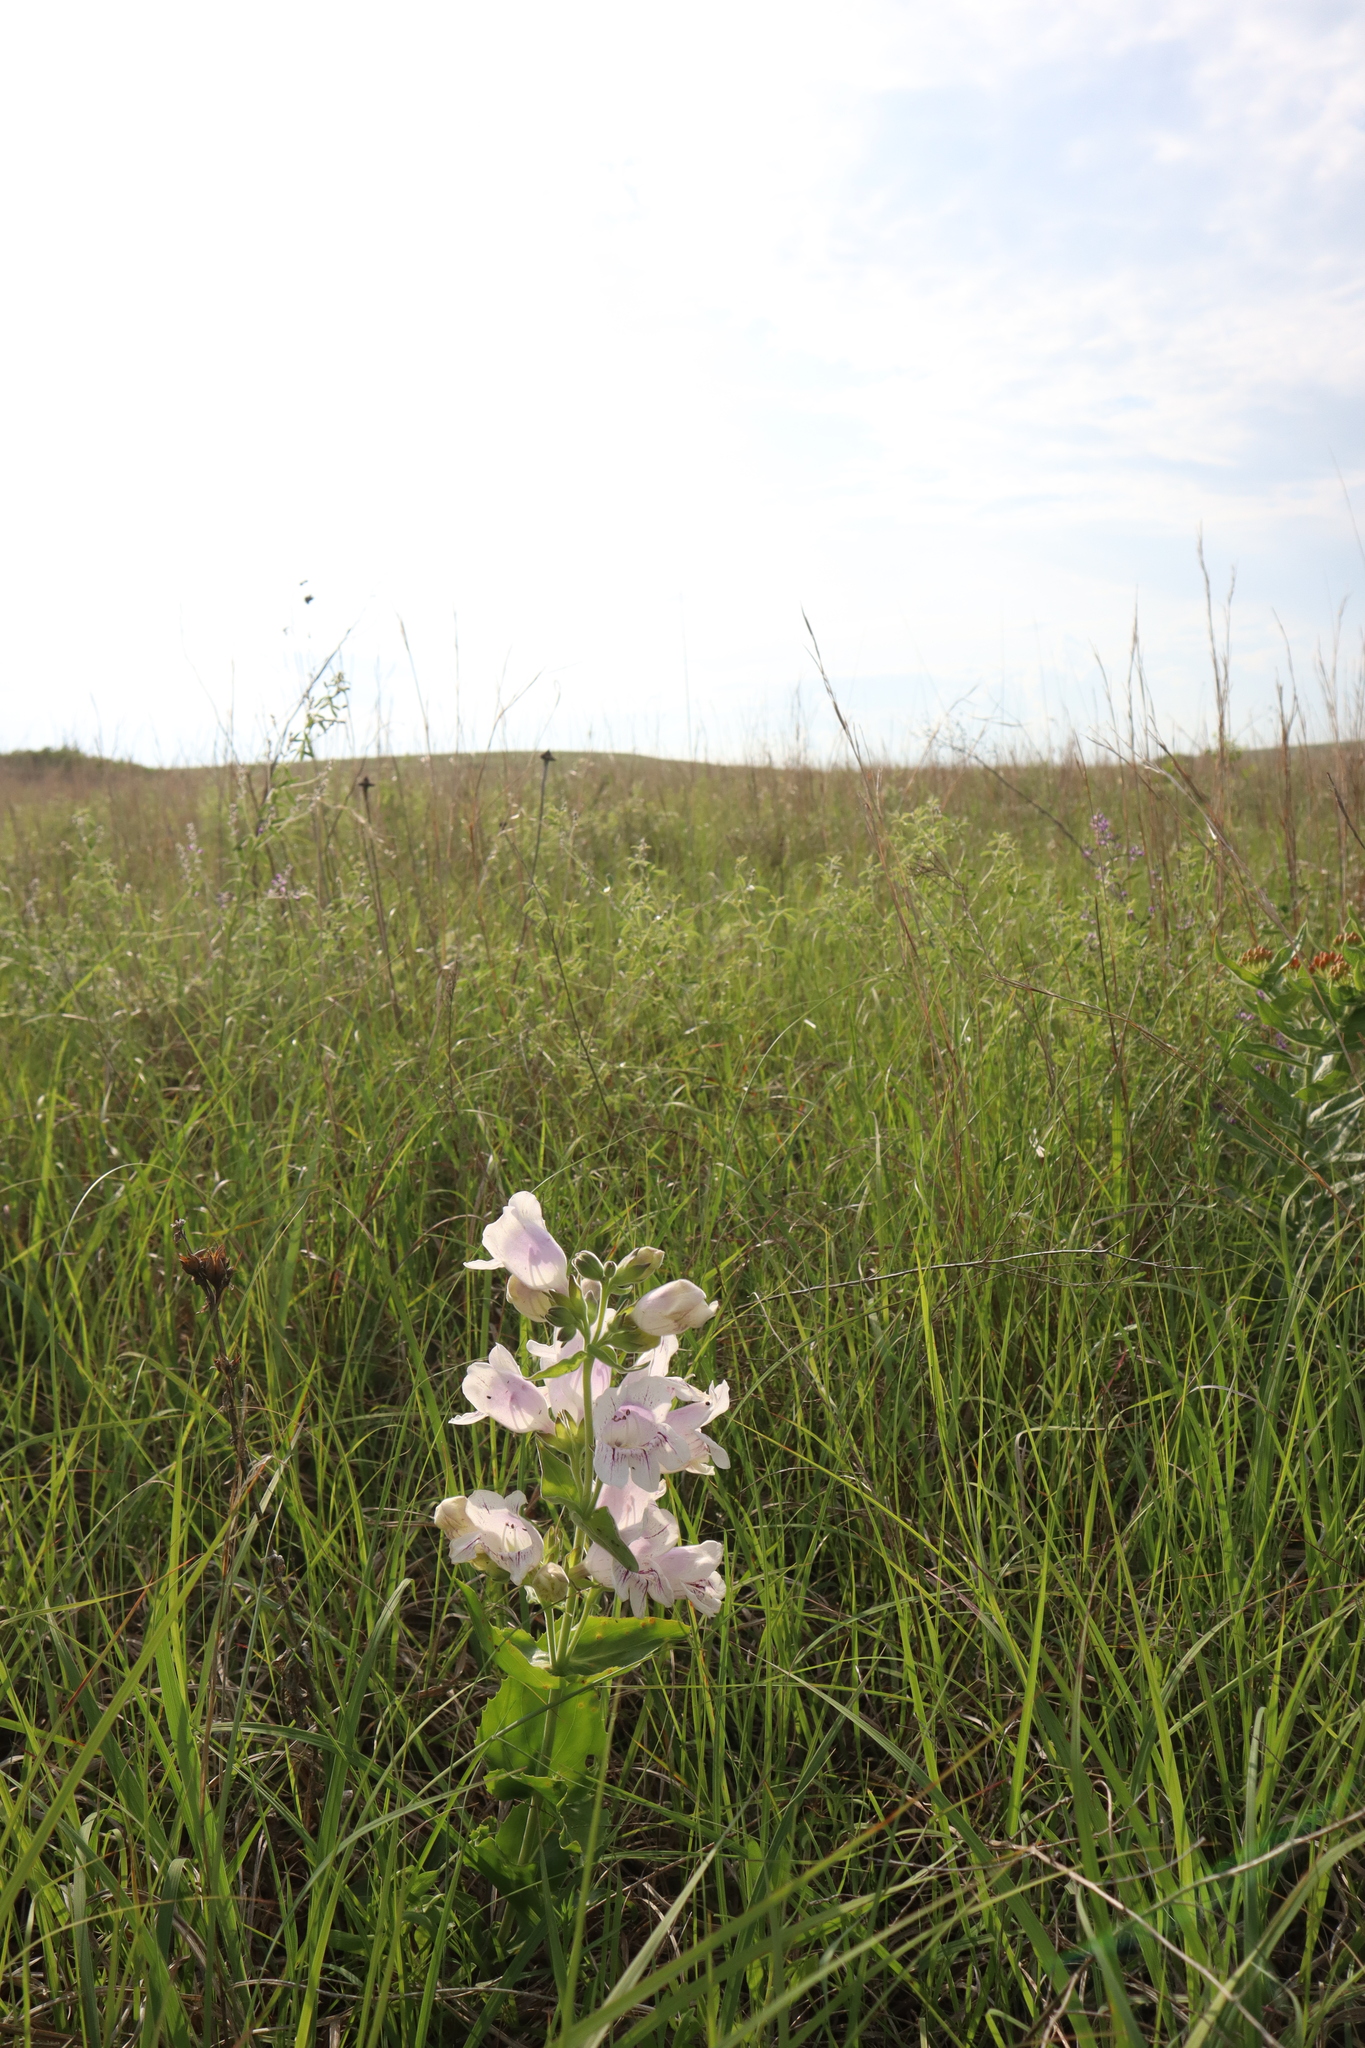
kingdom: Plantae
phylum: Tracheophyta
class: Magnoliopsida
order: Lamiales
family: Plantaginaceae
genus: Penstemon
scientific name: Penstemon cobaea
